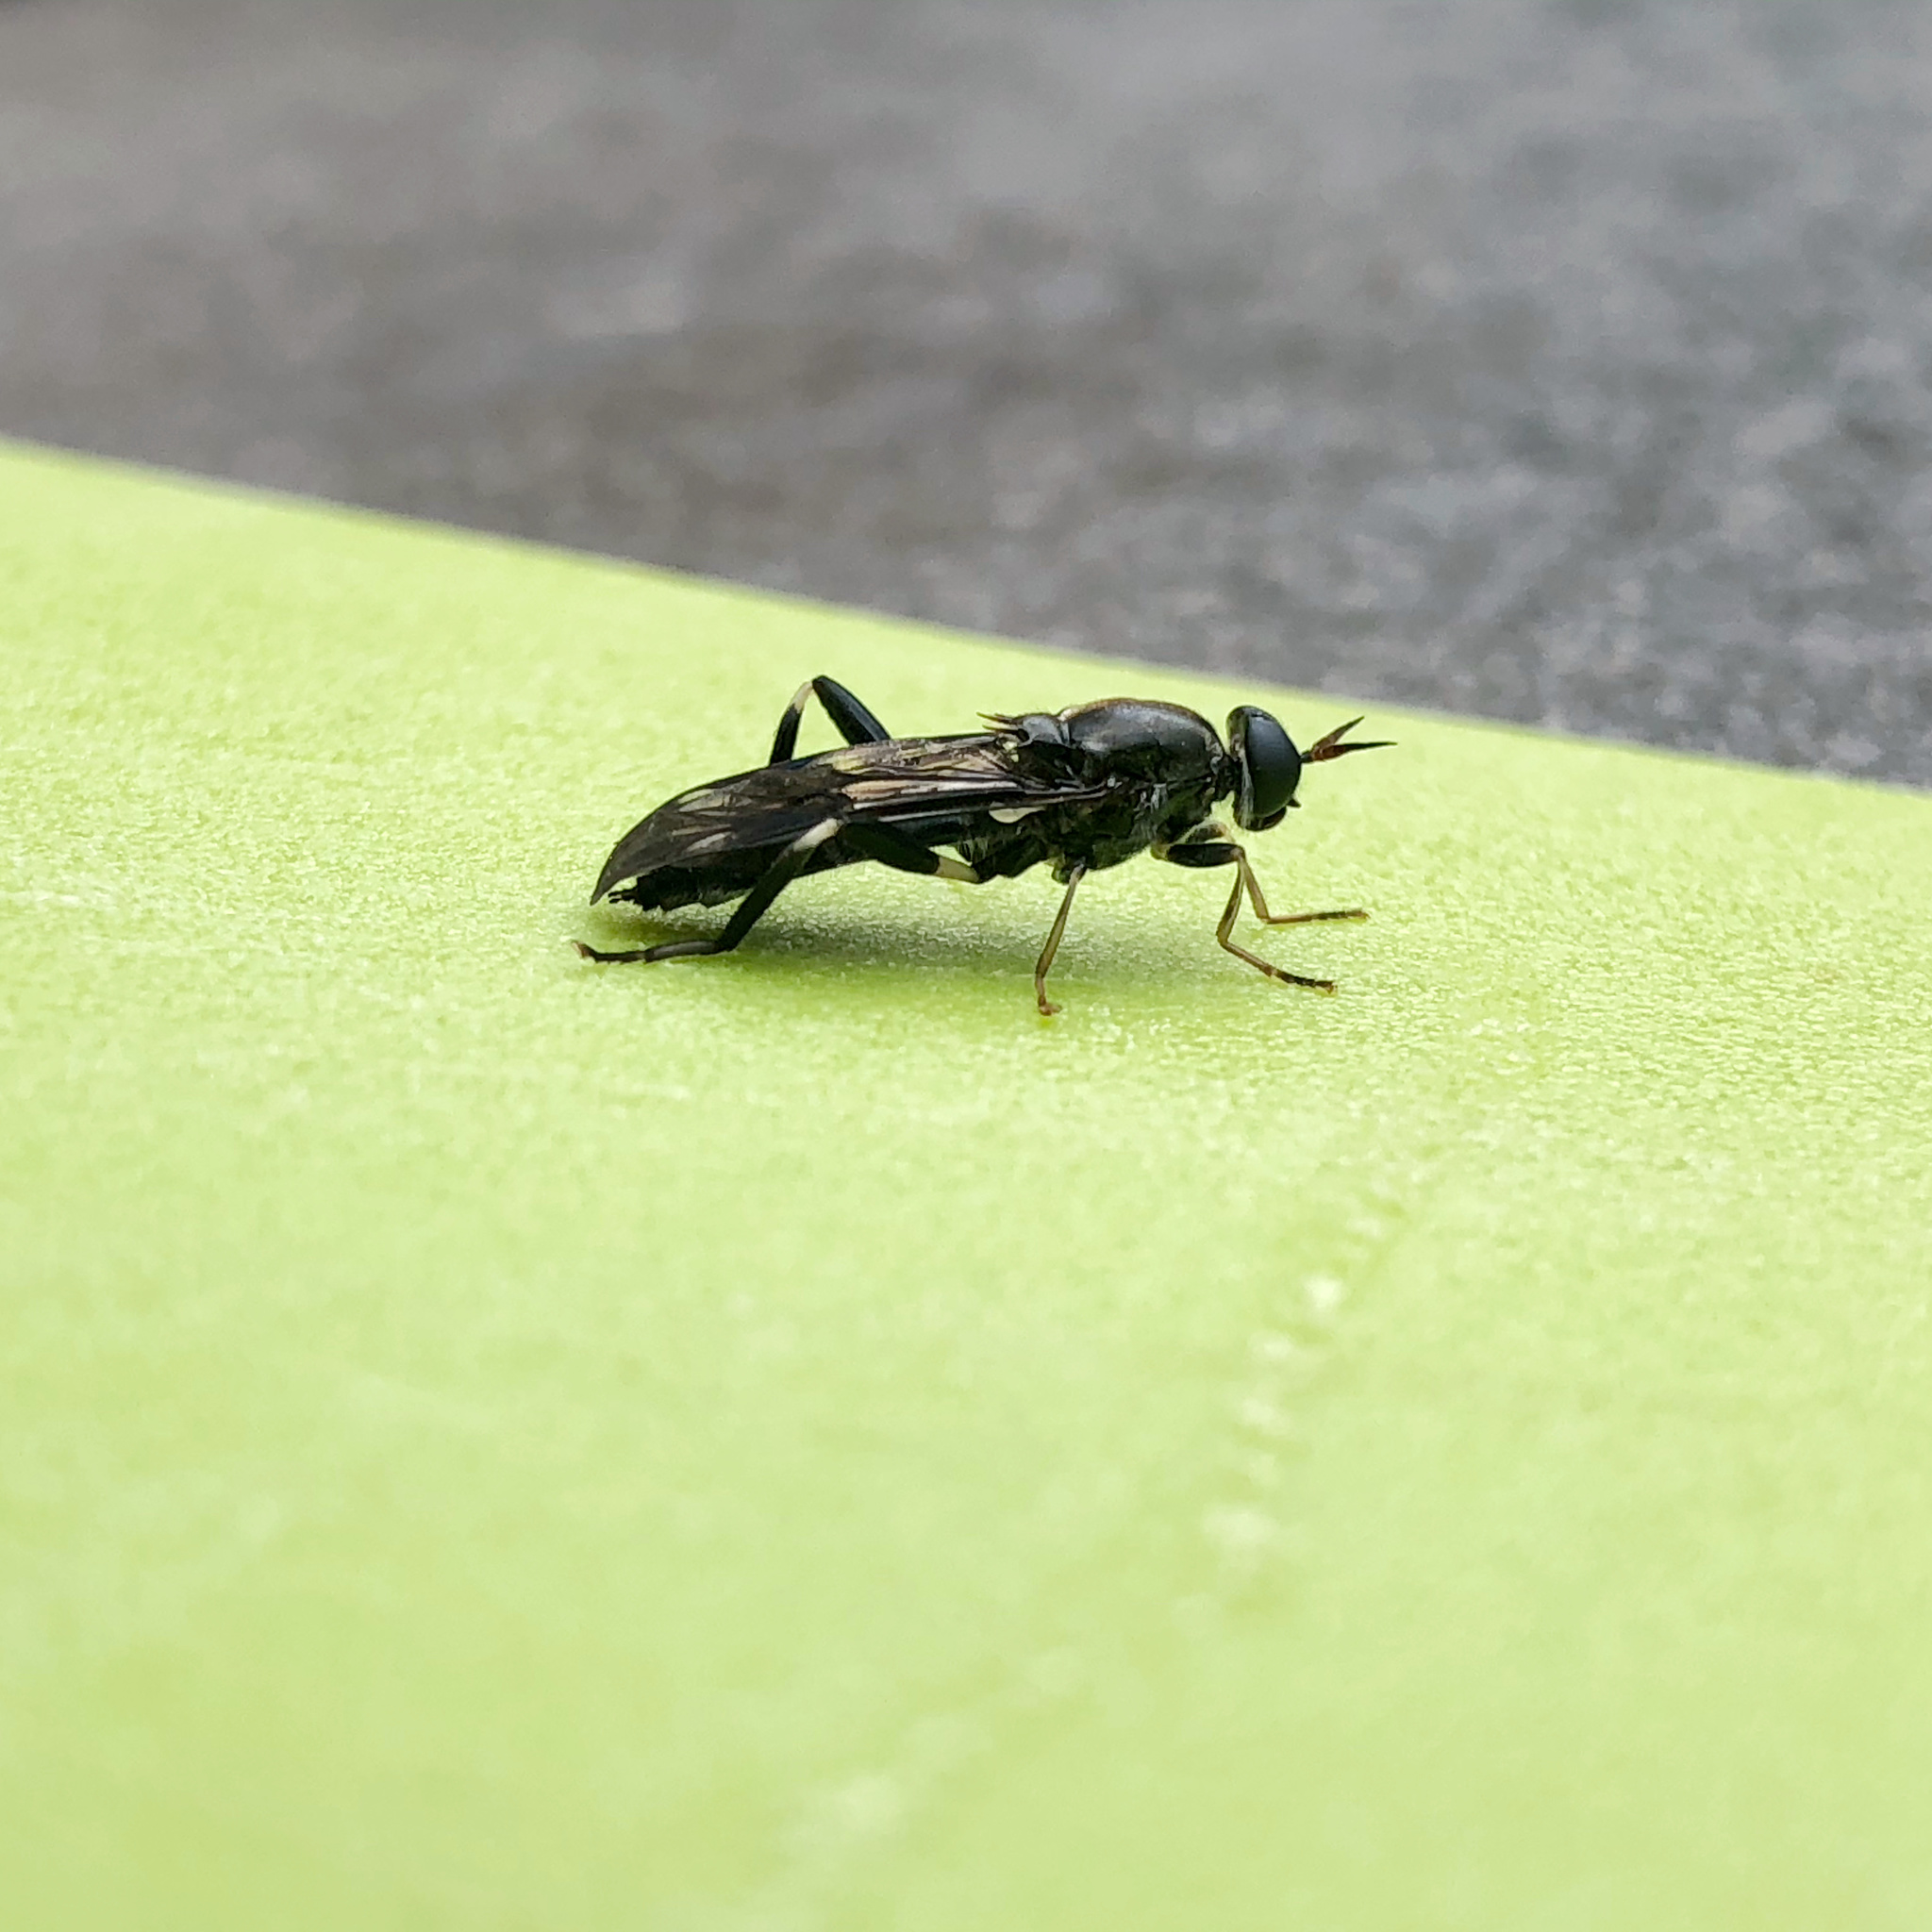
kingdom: Animalia
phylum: Arthropoda
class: Insecta
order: Diptera
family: Stratiomyidae
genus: Exaireta
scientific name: Exaireta spinigera
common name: Blue soldier fly
